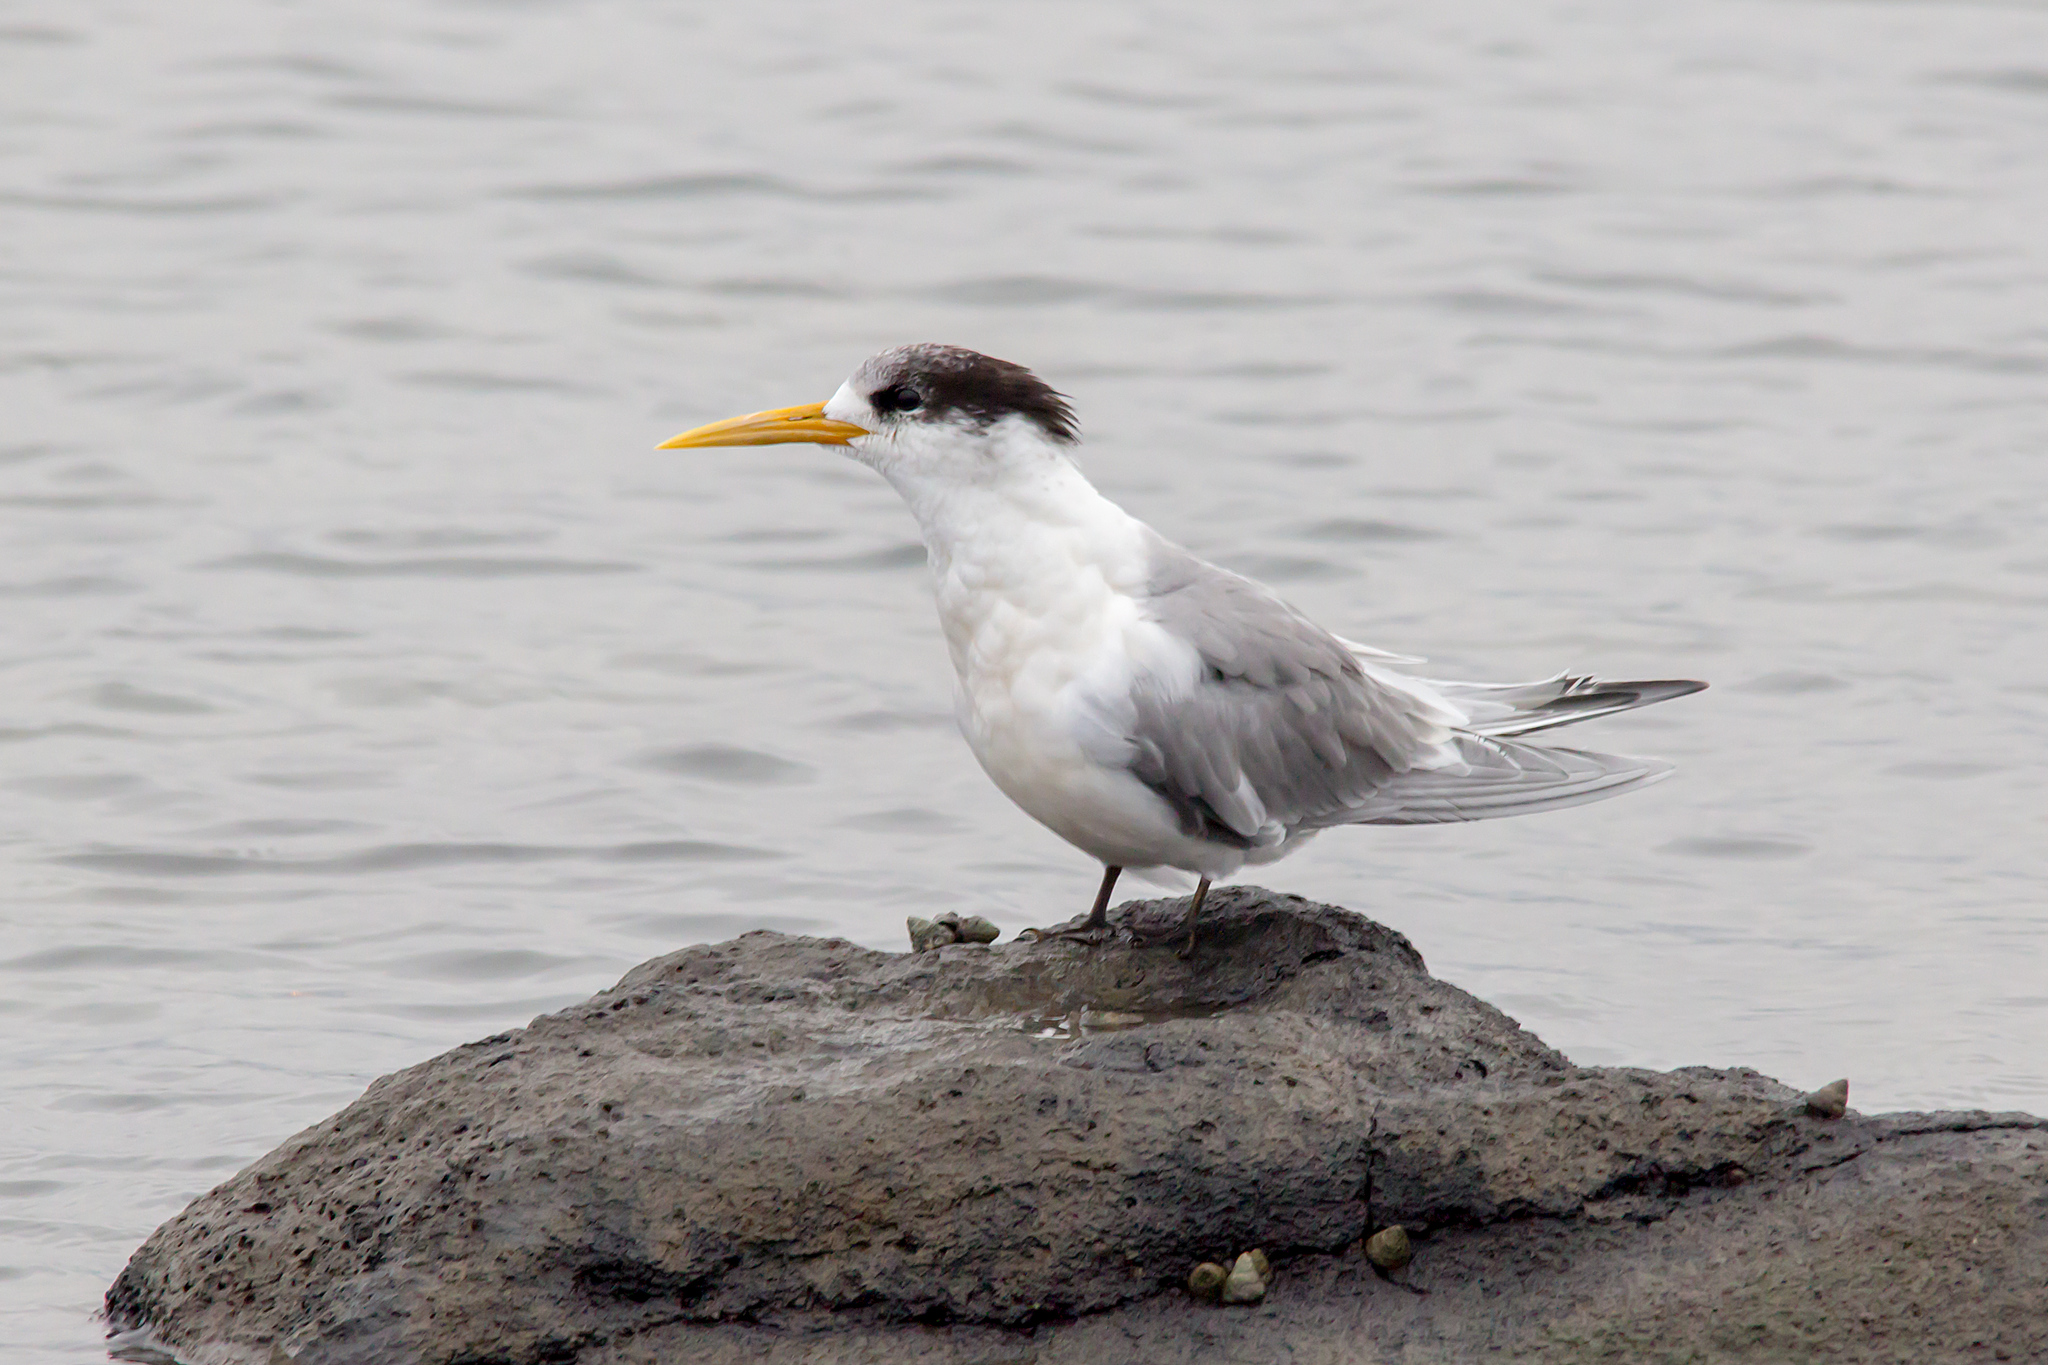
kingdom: Animalia
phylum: Chordata
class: Aves
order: Charadriiformes
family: Laridae
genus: Thalasseus
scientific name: Thalasseus bergii
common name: Greater crested tern
